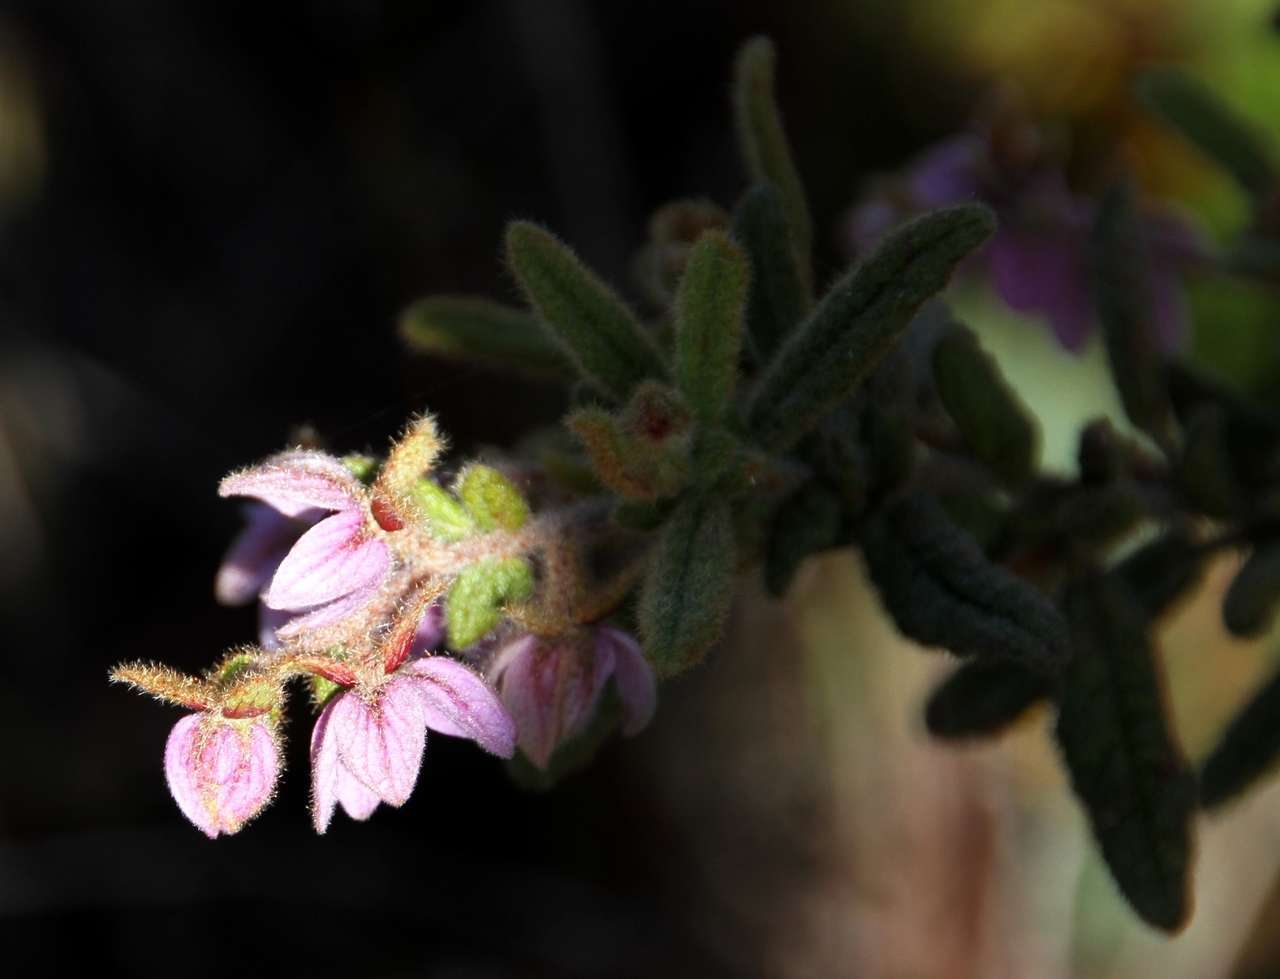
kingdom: Plantae
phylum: Tracheophyta
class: Magnoliopsida
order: Malvales
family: Malvaceae
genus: Thomasia
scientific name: Thomasia petalocalyx
